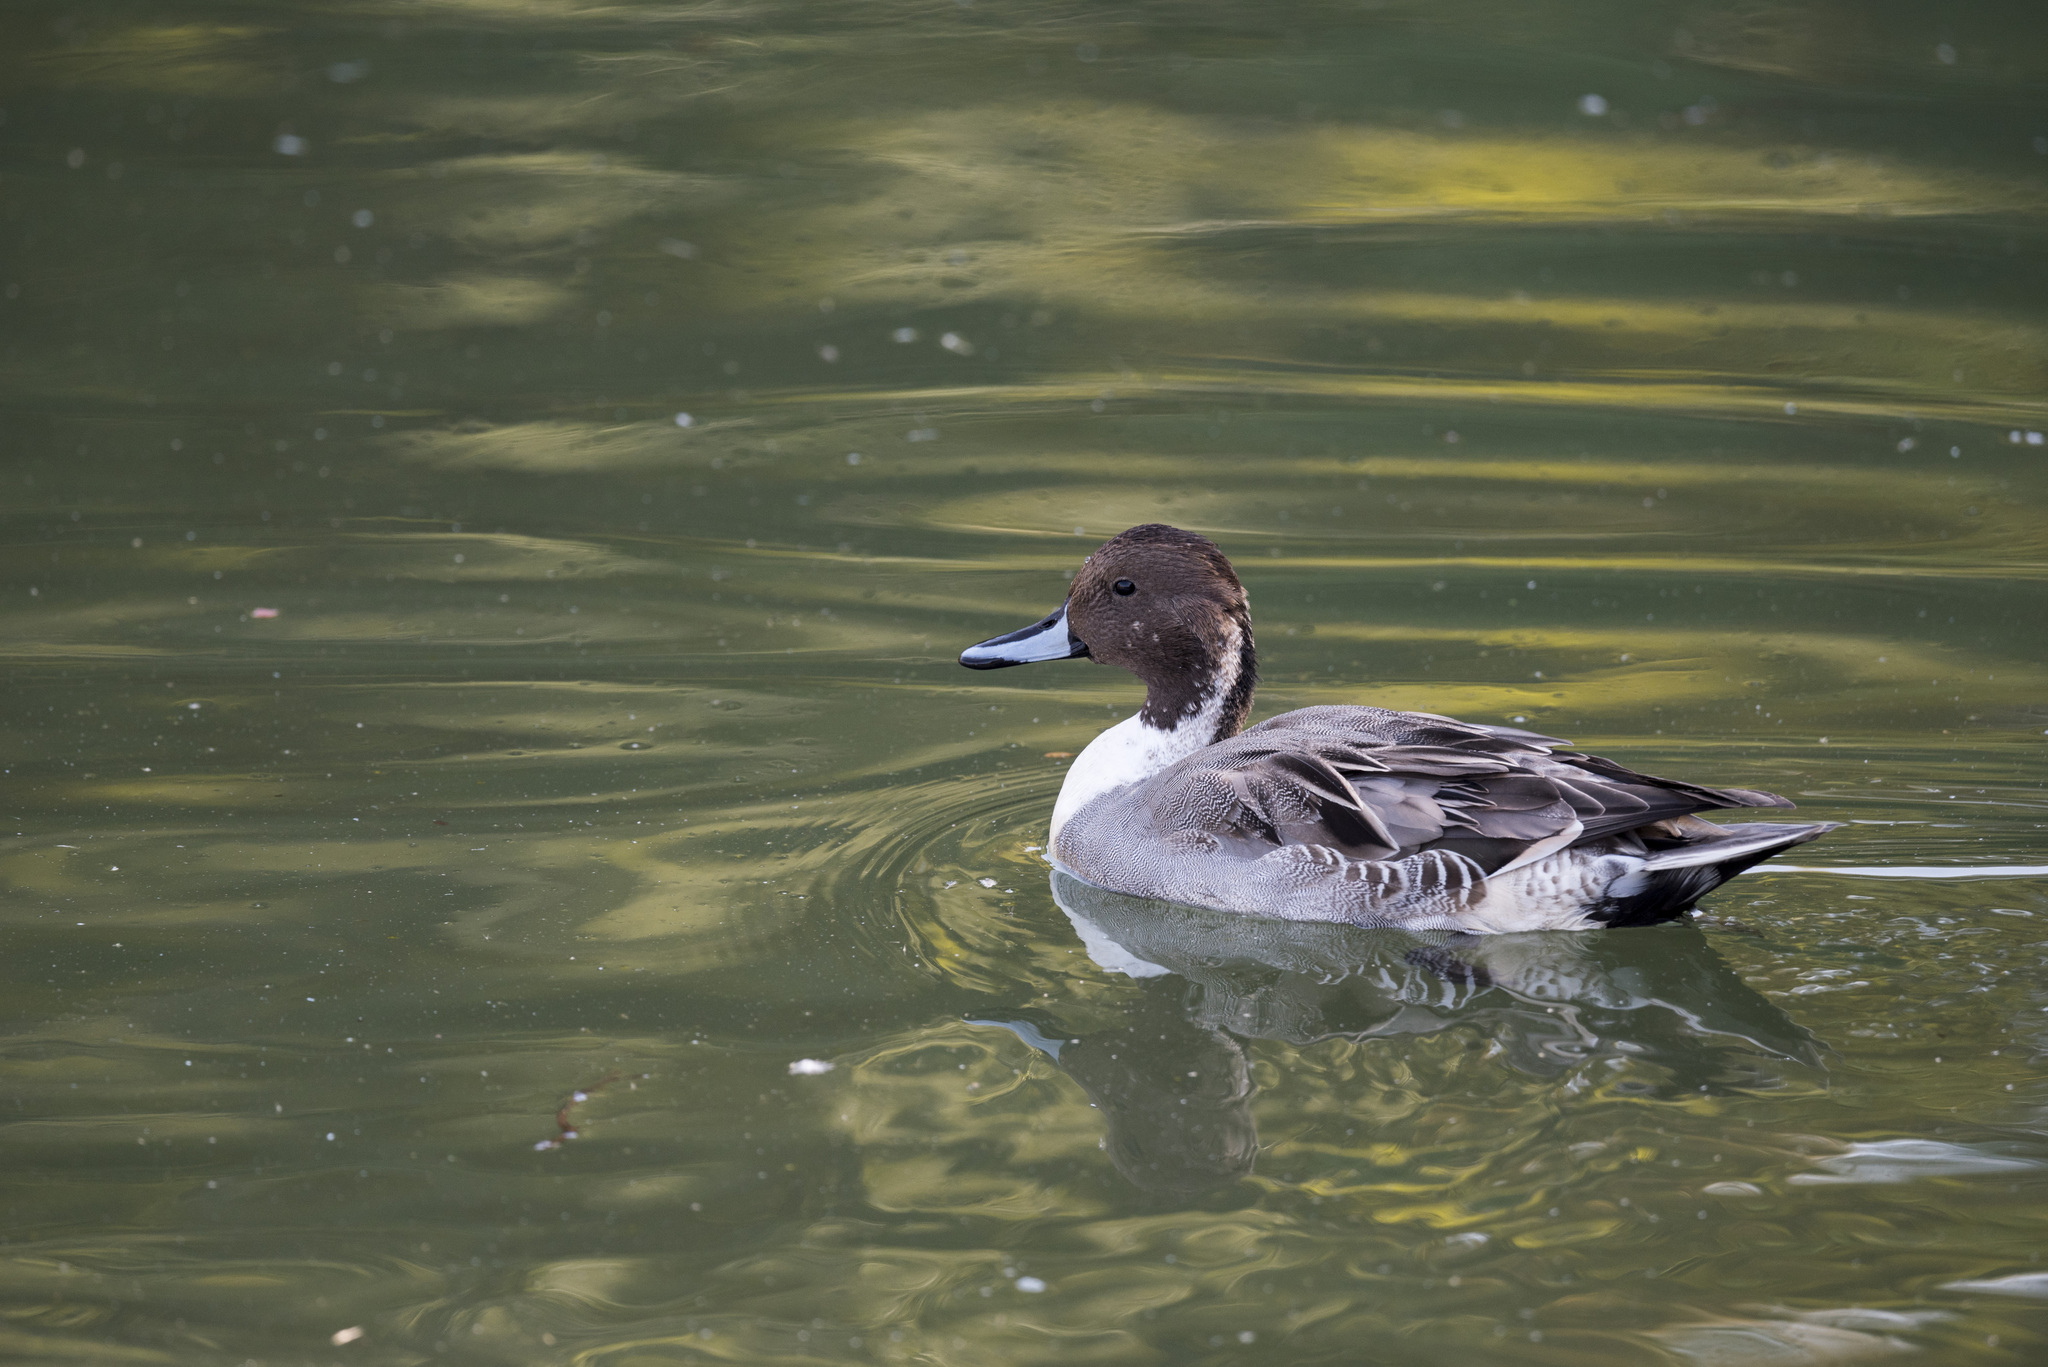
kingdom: Animalia
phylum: Chordata
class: Aves
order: Anseriformes
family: Anatidae
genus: Anas
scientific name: Anas acuta
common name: Northern pintail
